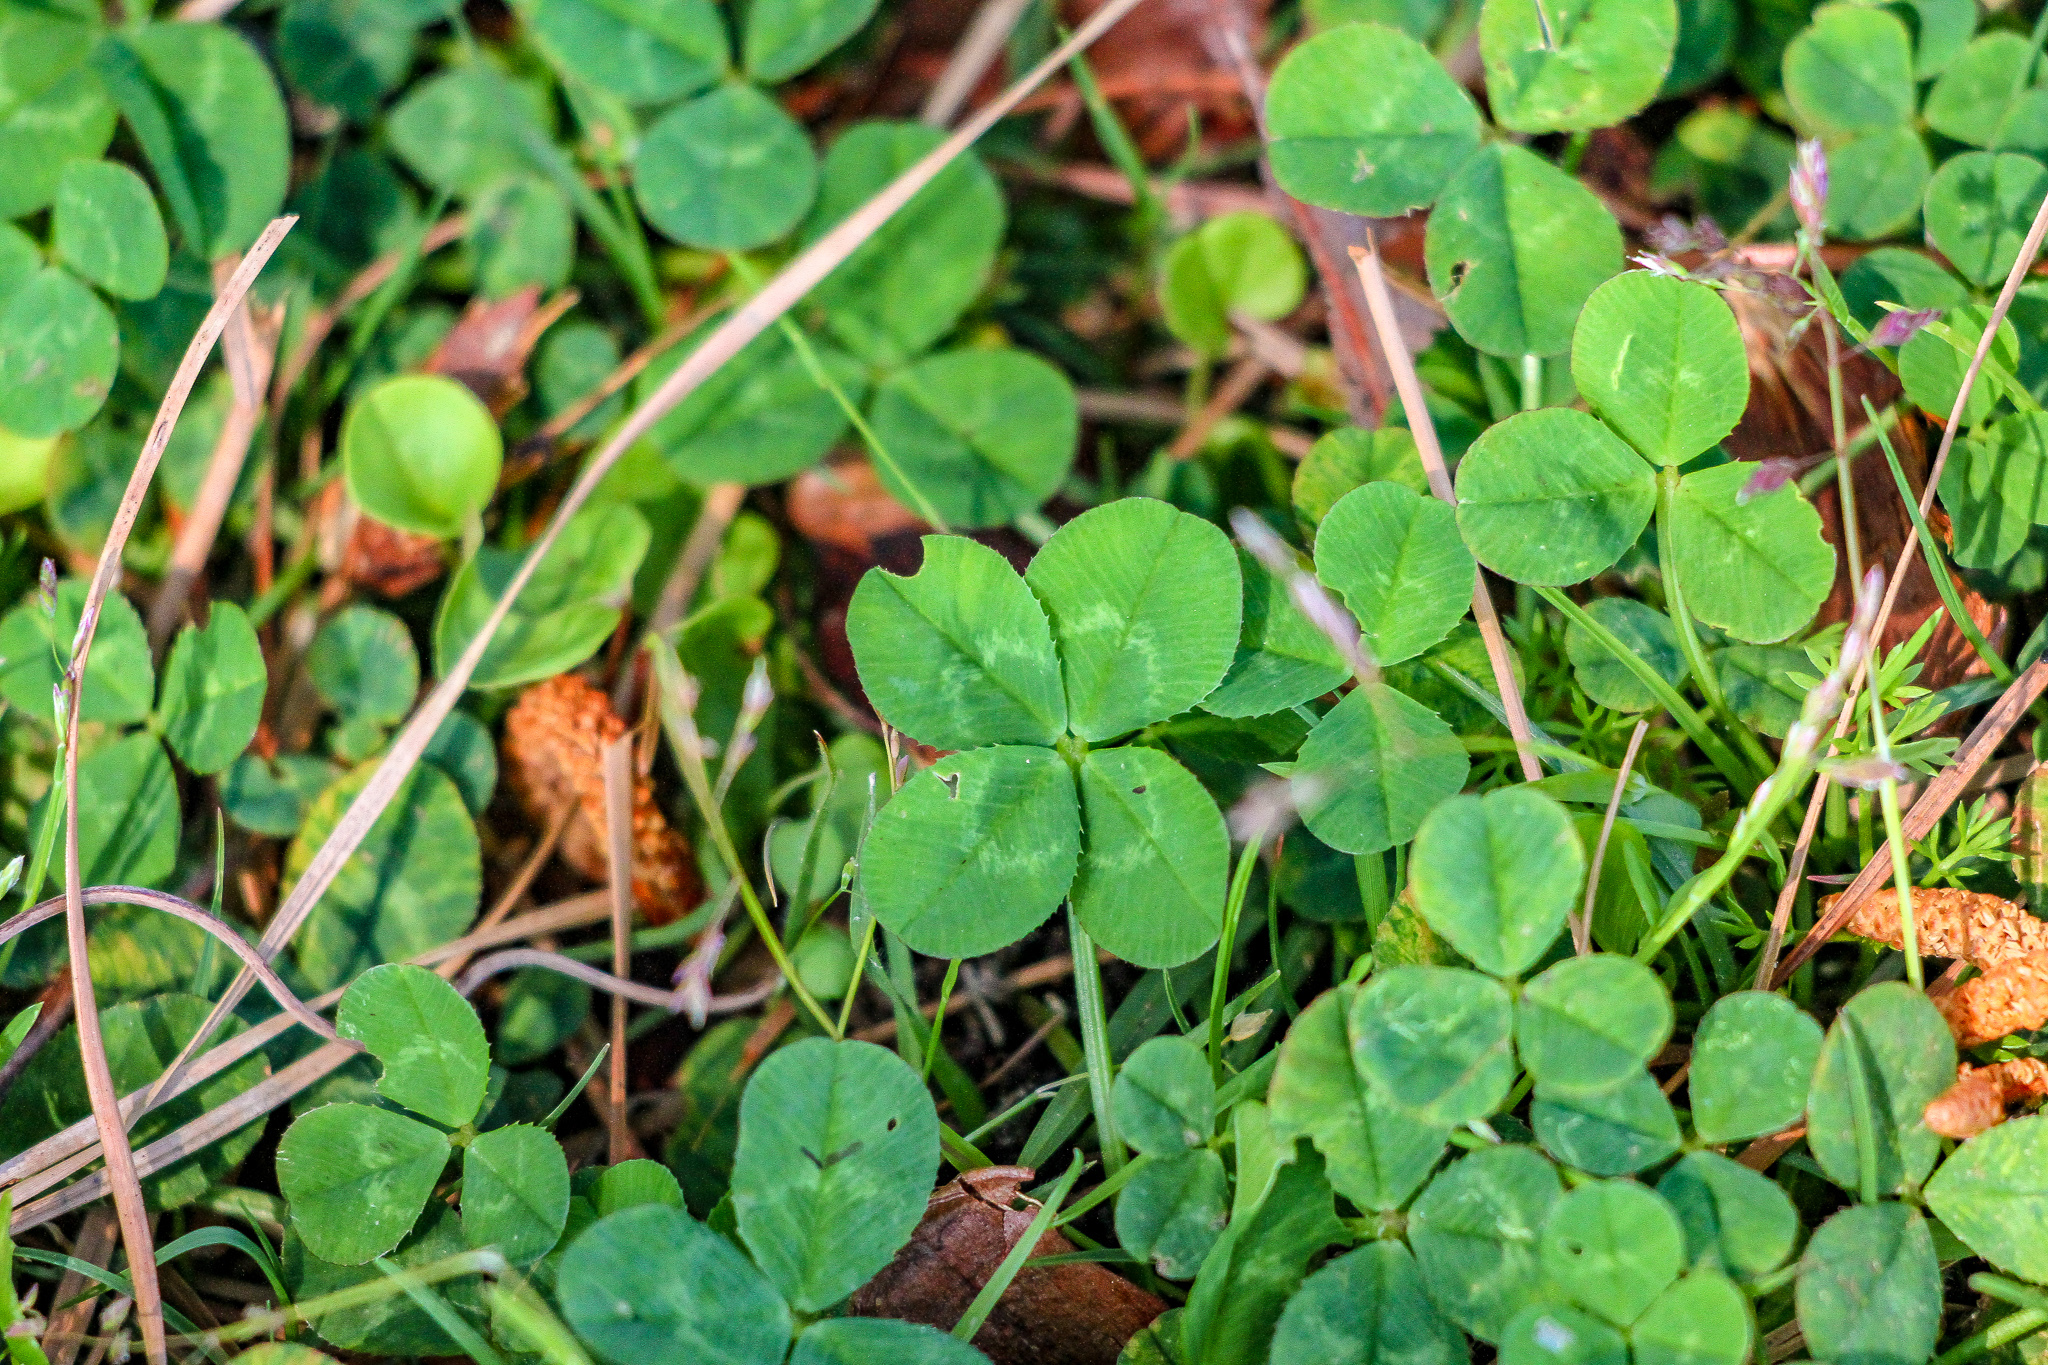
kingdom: Plantae
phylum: Tracheophyta
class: Magnoliopsida
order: Fabales
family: Fabaceae
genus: Trifolium
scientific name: Trifolium repens
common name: White clover
